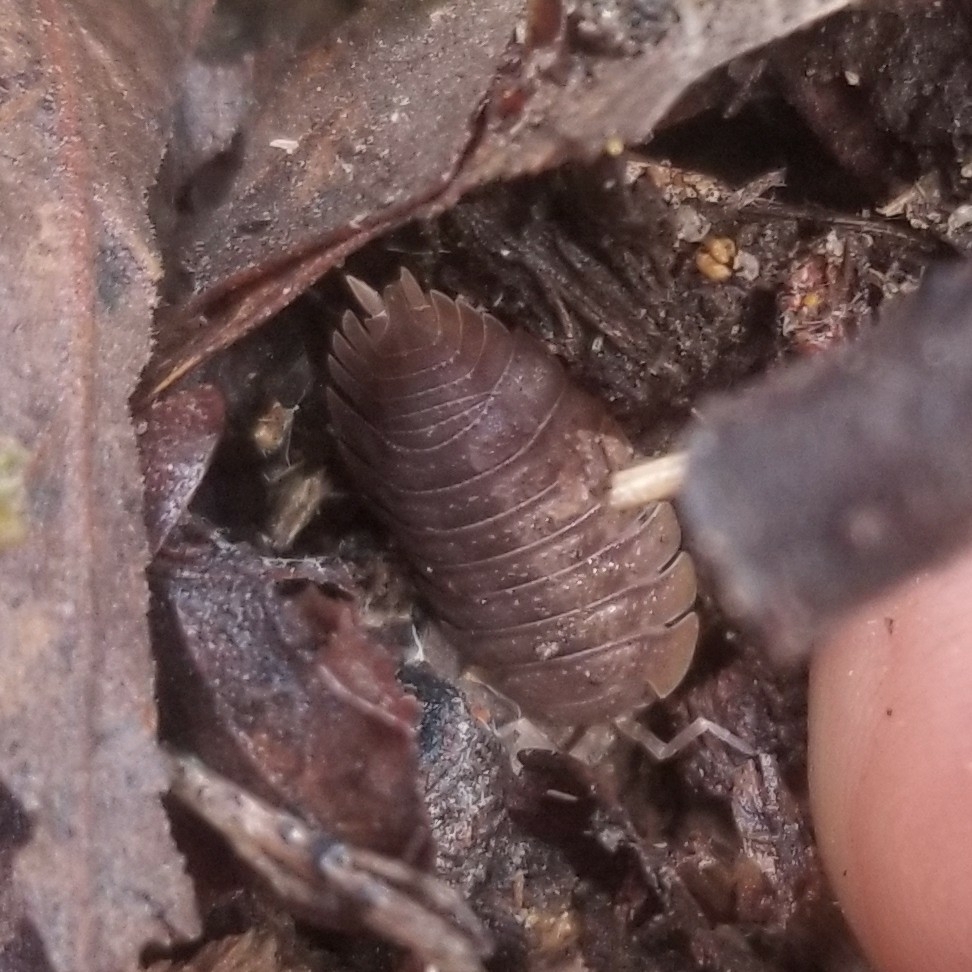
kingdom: Animalia
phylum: Arthropoda
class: Malacostraca
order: Isopoda
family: Porcellionidae
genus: Porcellio
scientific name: Porcellio dilatatus
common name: Isopod
